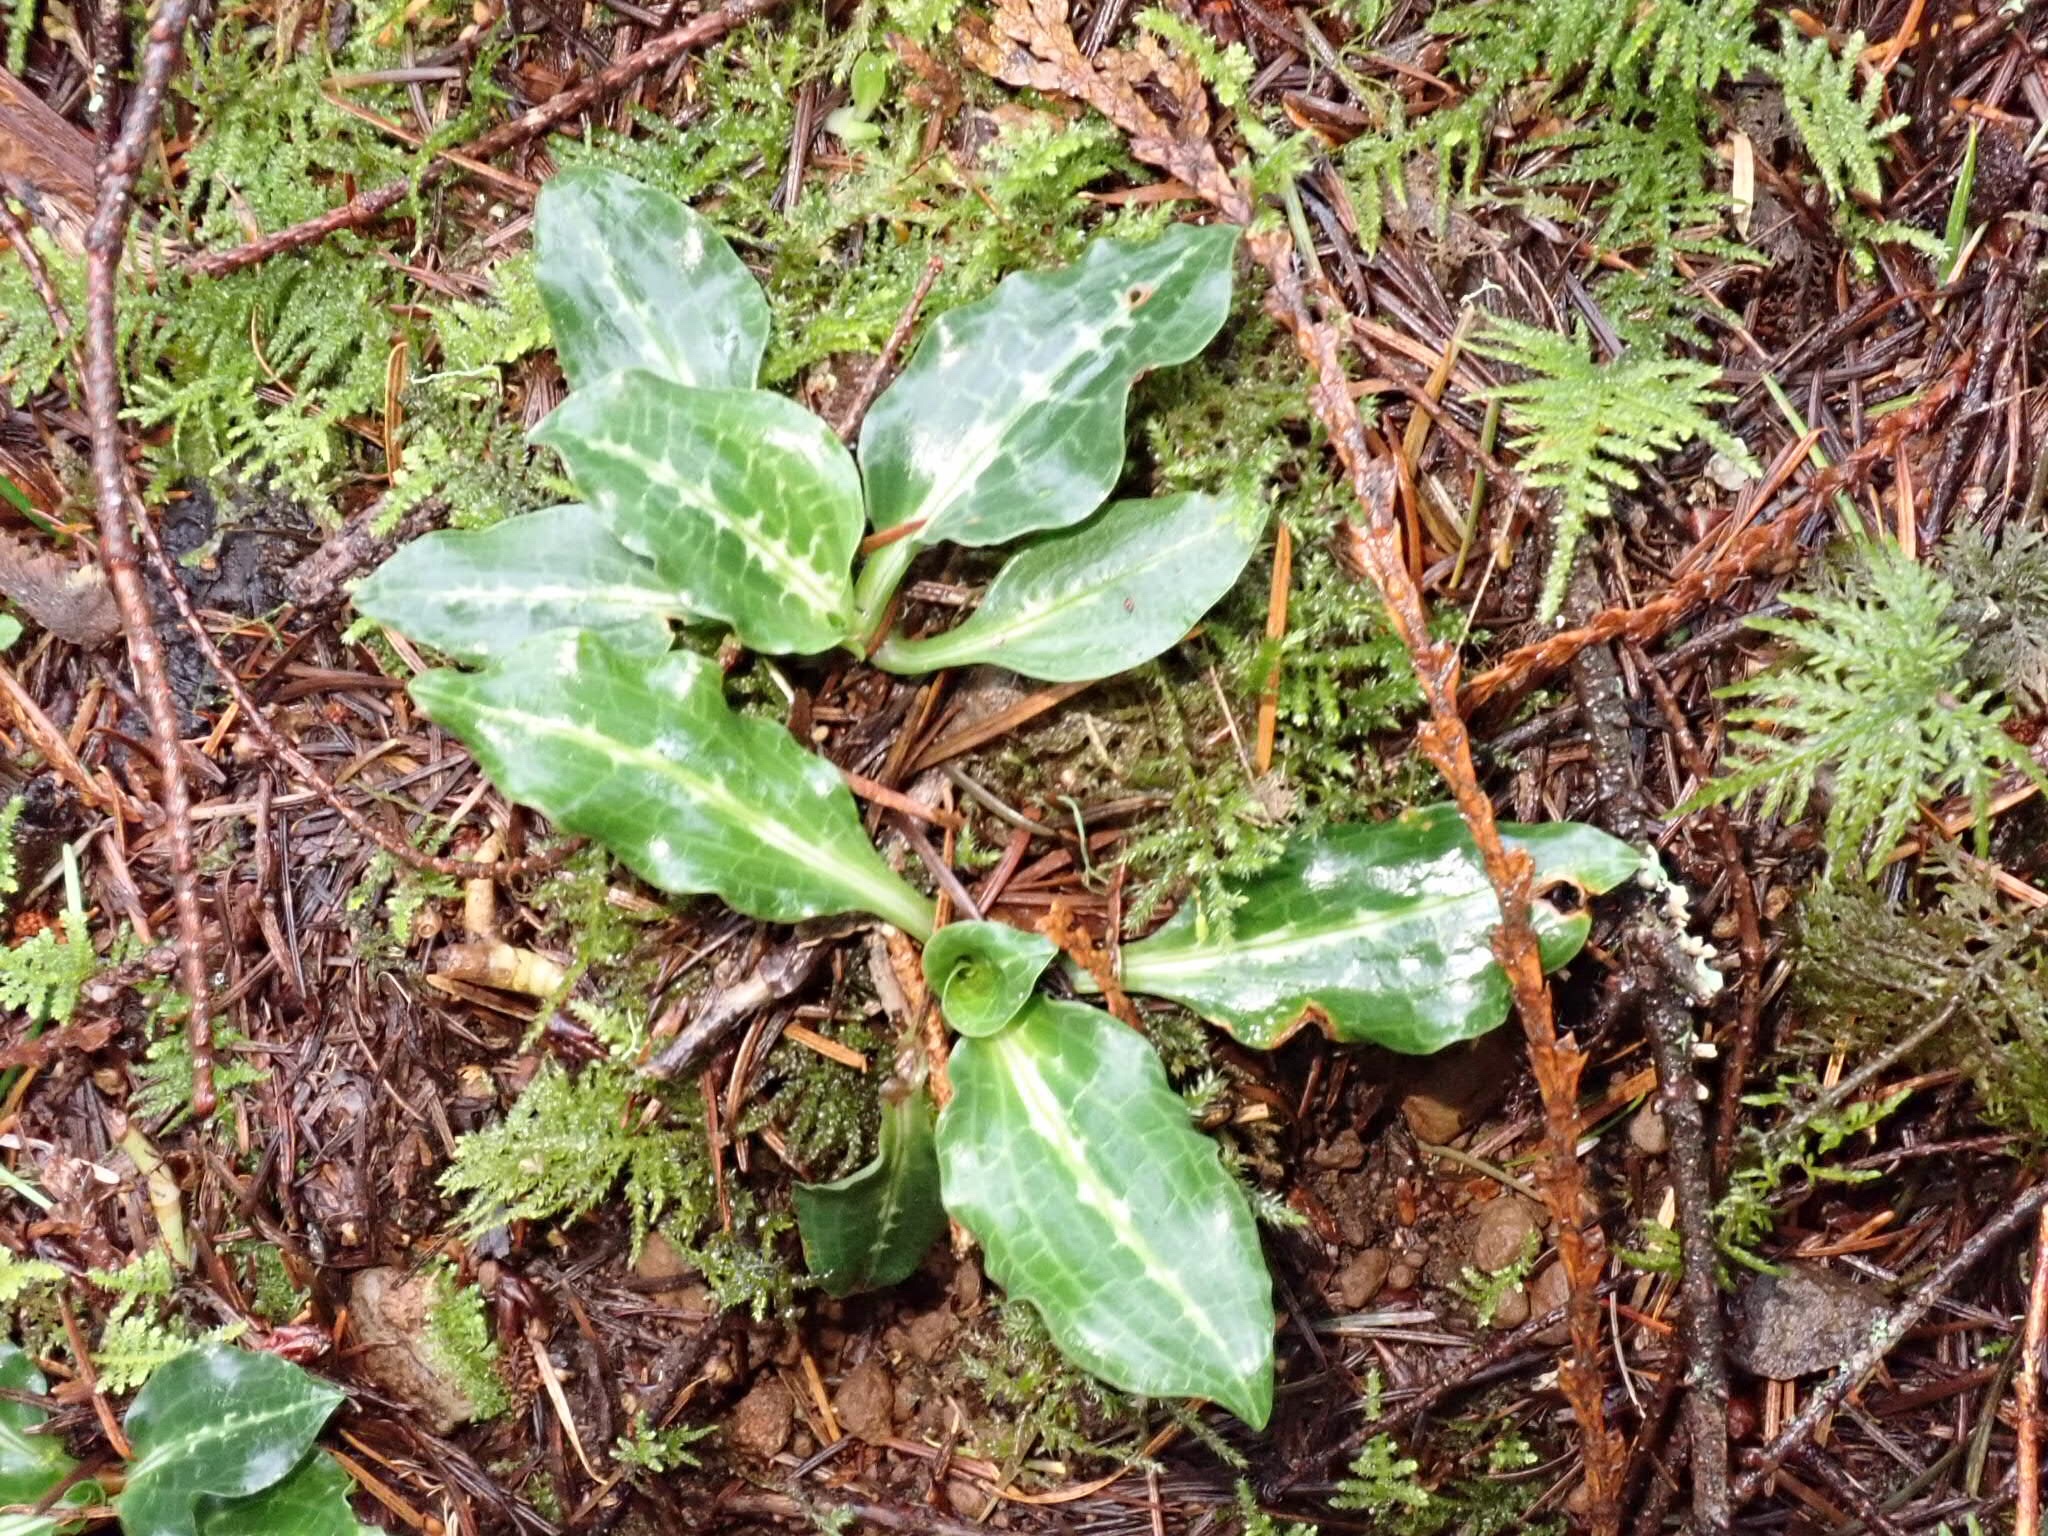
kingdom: Plantae
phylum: Tracheophyta
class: Liliopsida
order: Asparagales
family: Orchidaceae
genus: Goodyera
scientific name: Goodyera oblongifolia
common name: Giant rattlesnake-plantain
